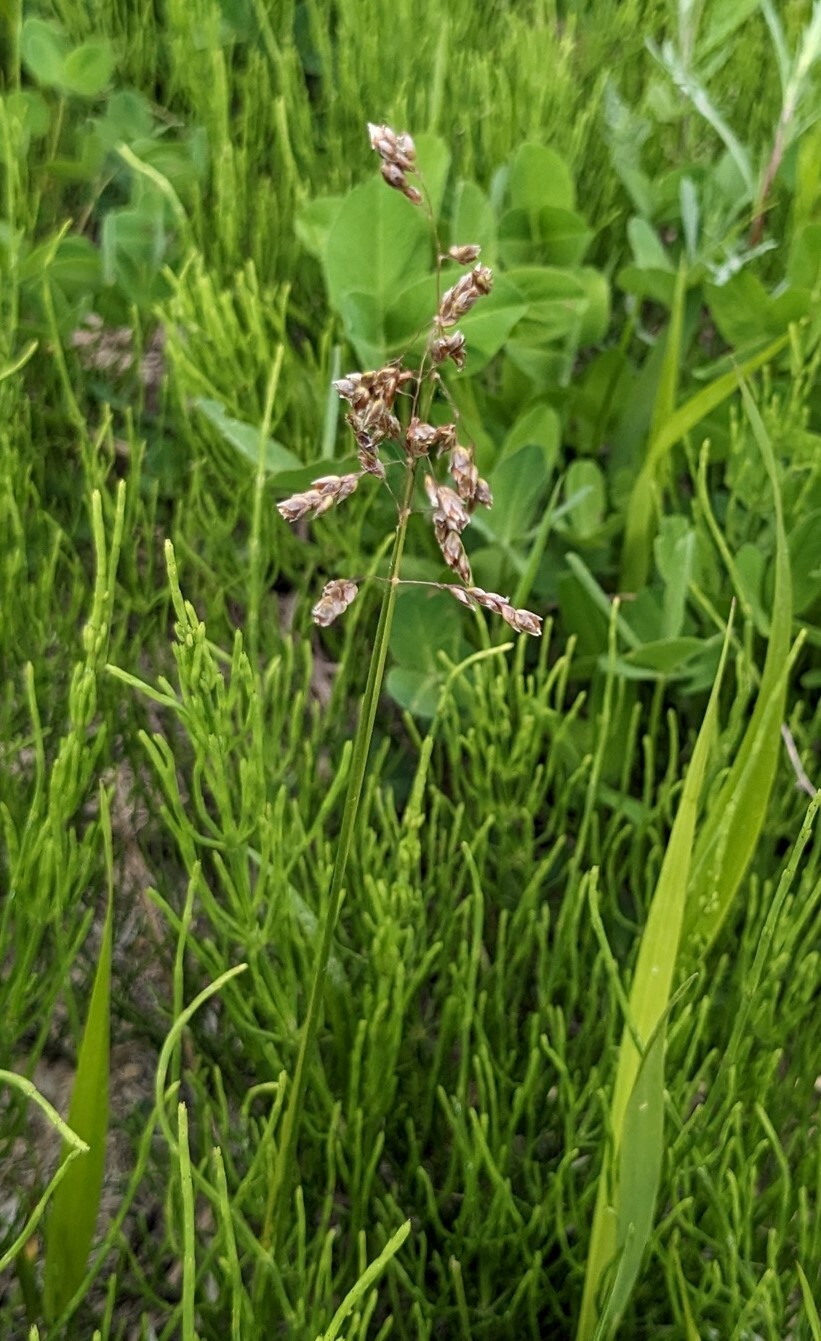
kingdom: Plantae
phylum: Tracheophyta
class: Liliopsida
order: Poales
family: Poaceae
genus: Anthoxanthum
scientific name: Anthoxanthum glabrum
